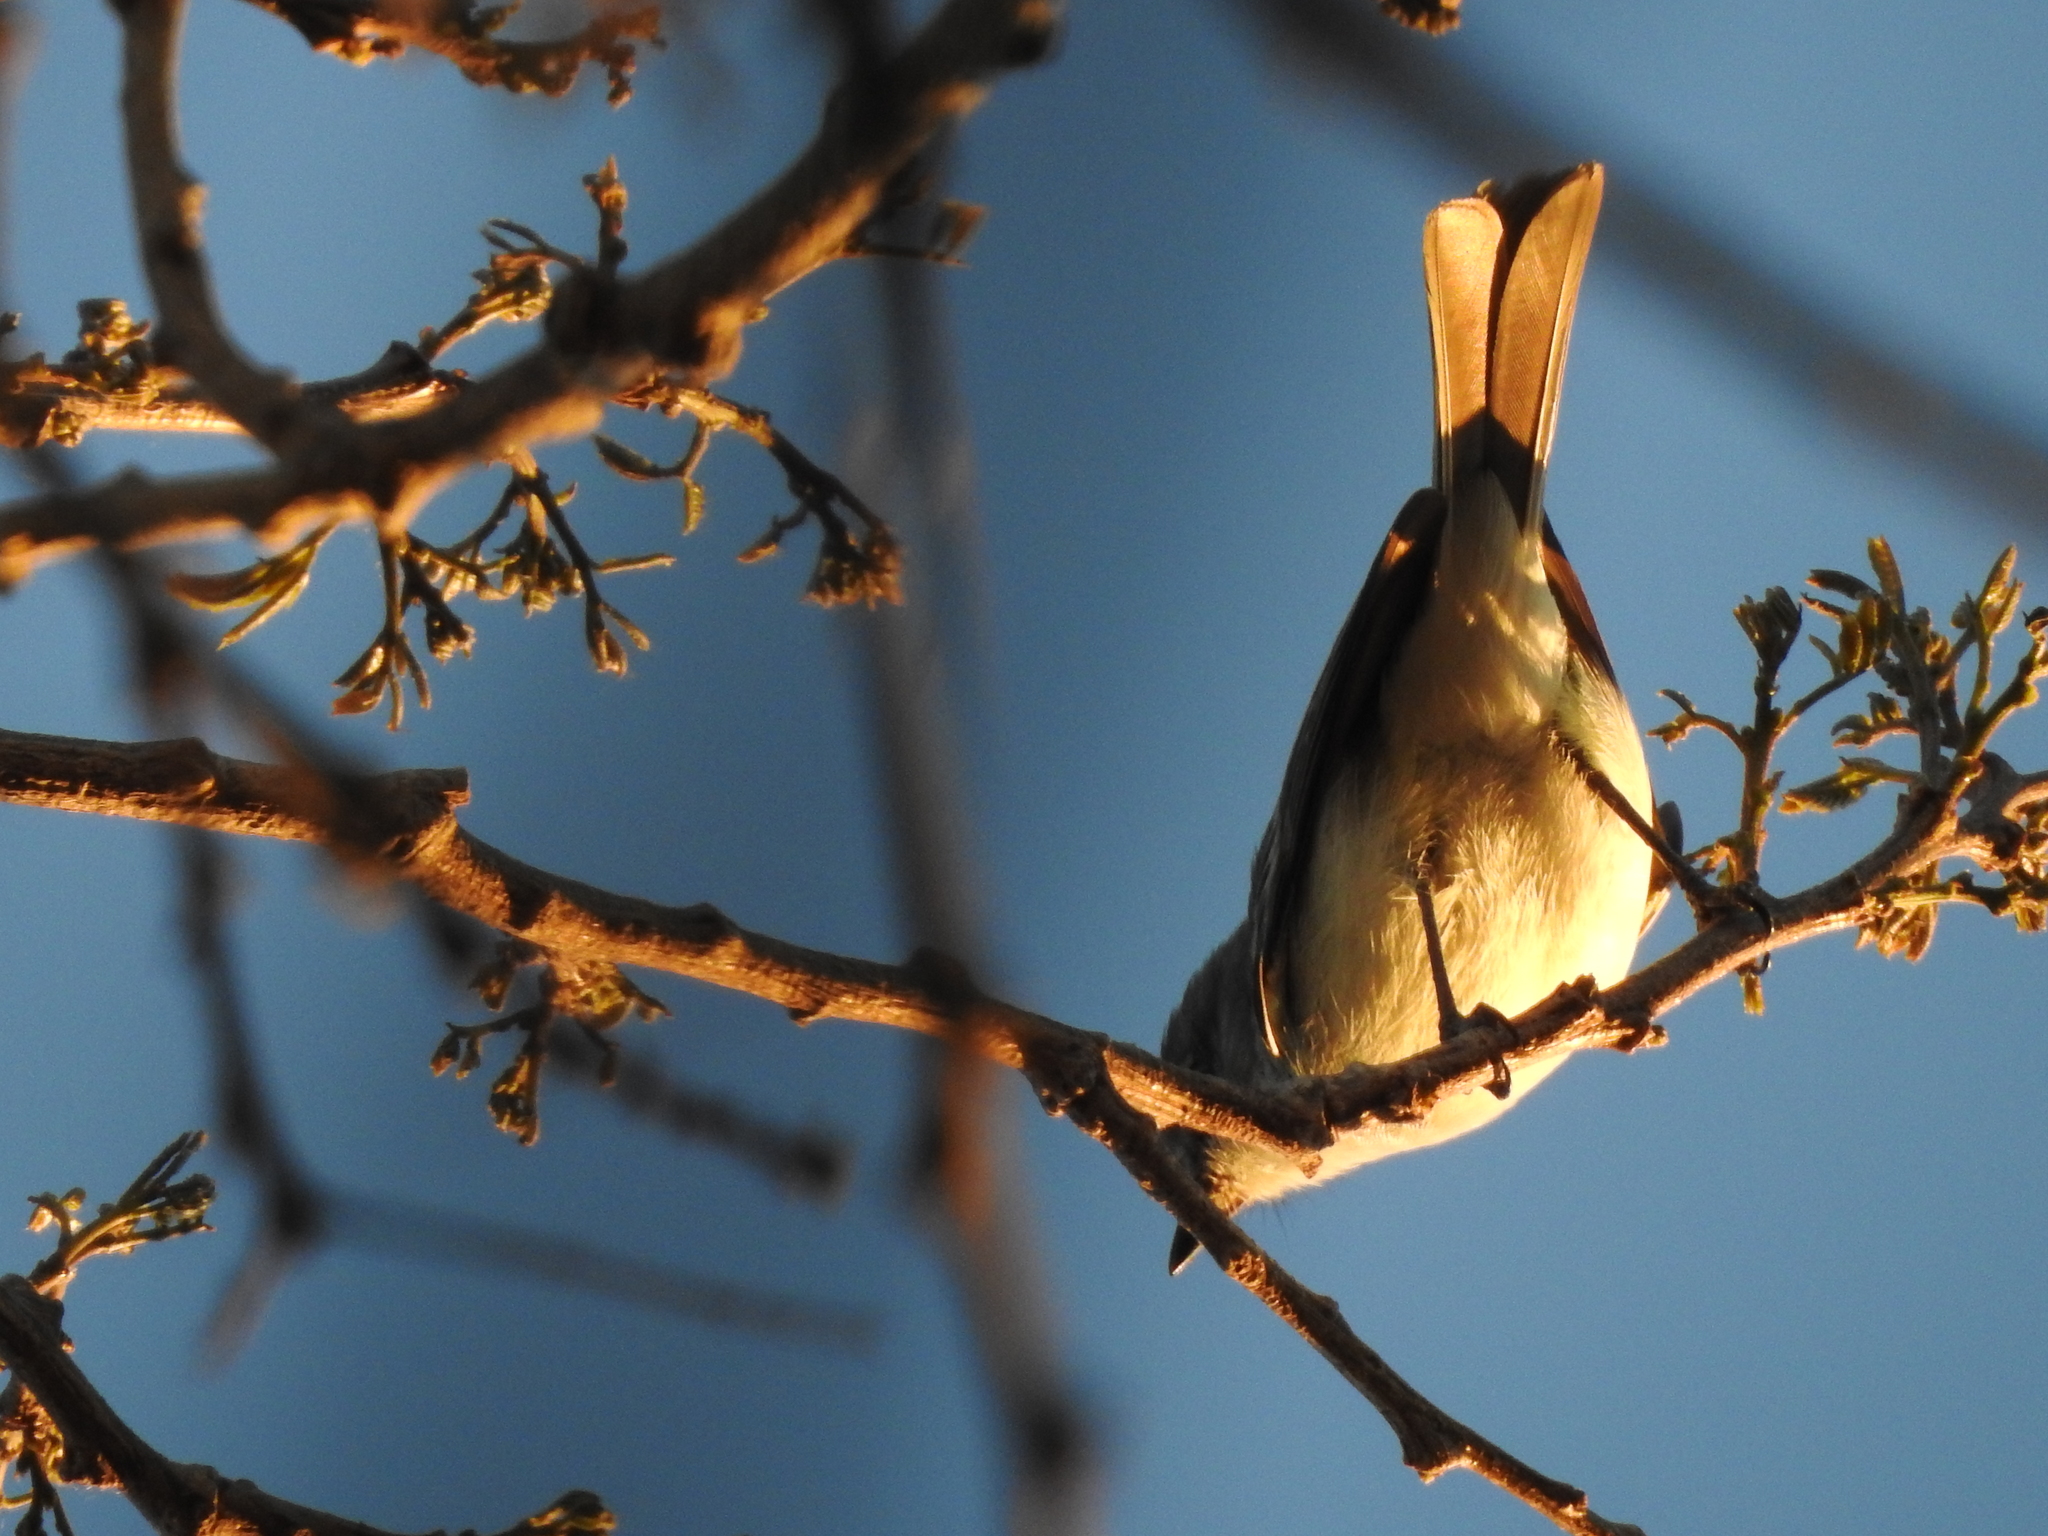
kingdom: Animalia
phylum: Chordata
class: Aves
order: Passeriformes
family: Tyrannidae
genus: Suiriri
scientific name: Suiriri suiriri
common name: Suiriri flycatcher
